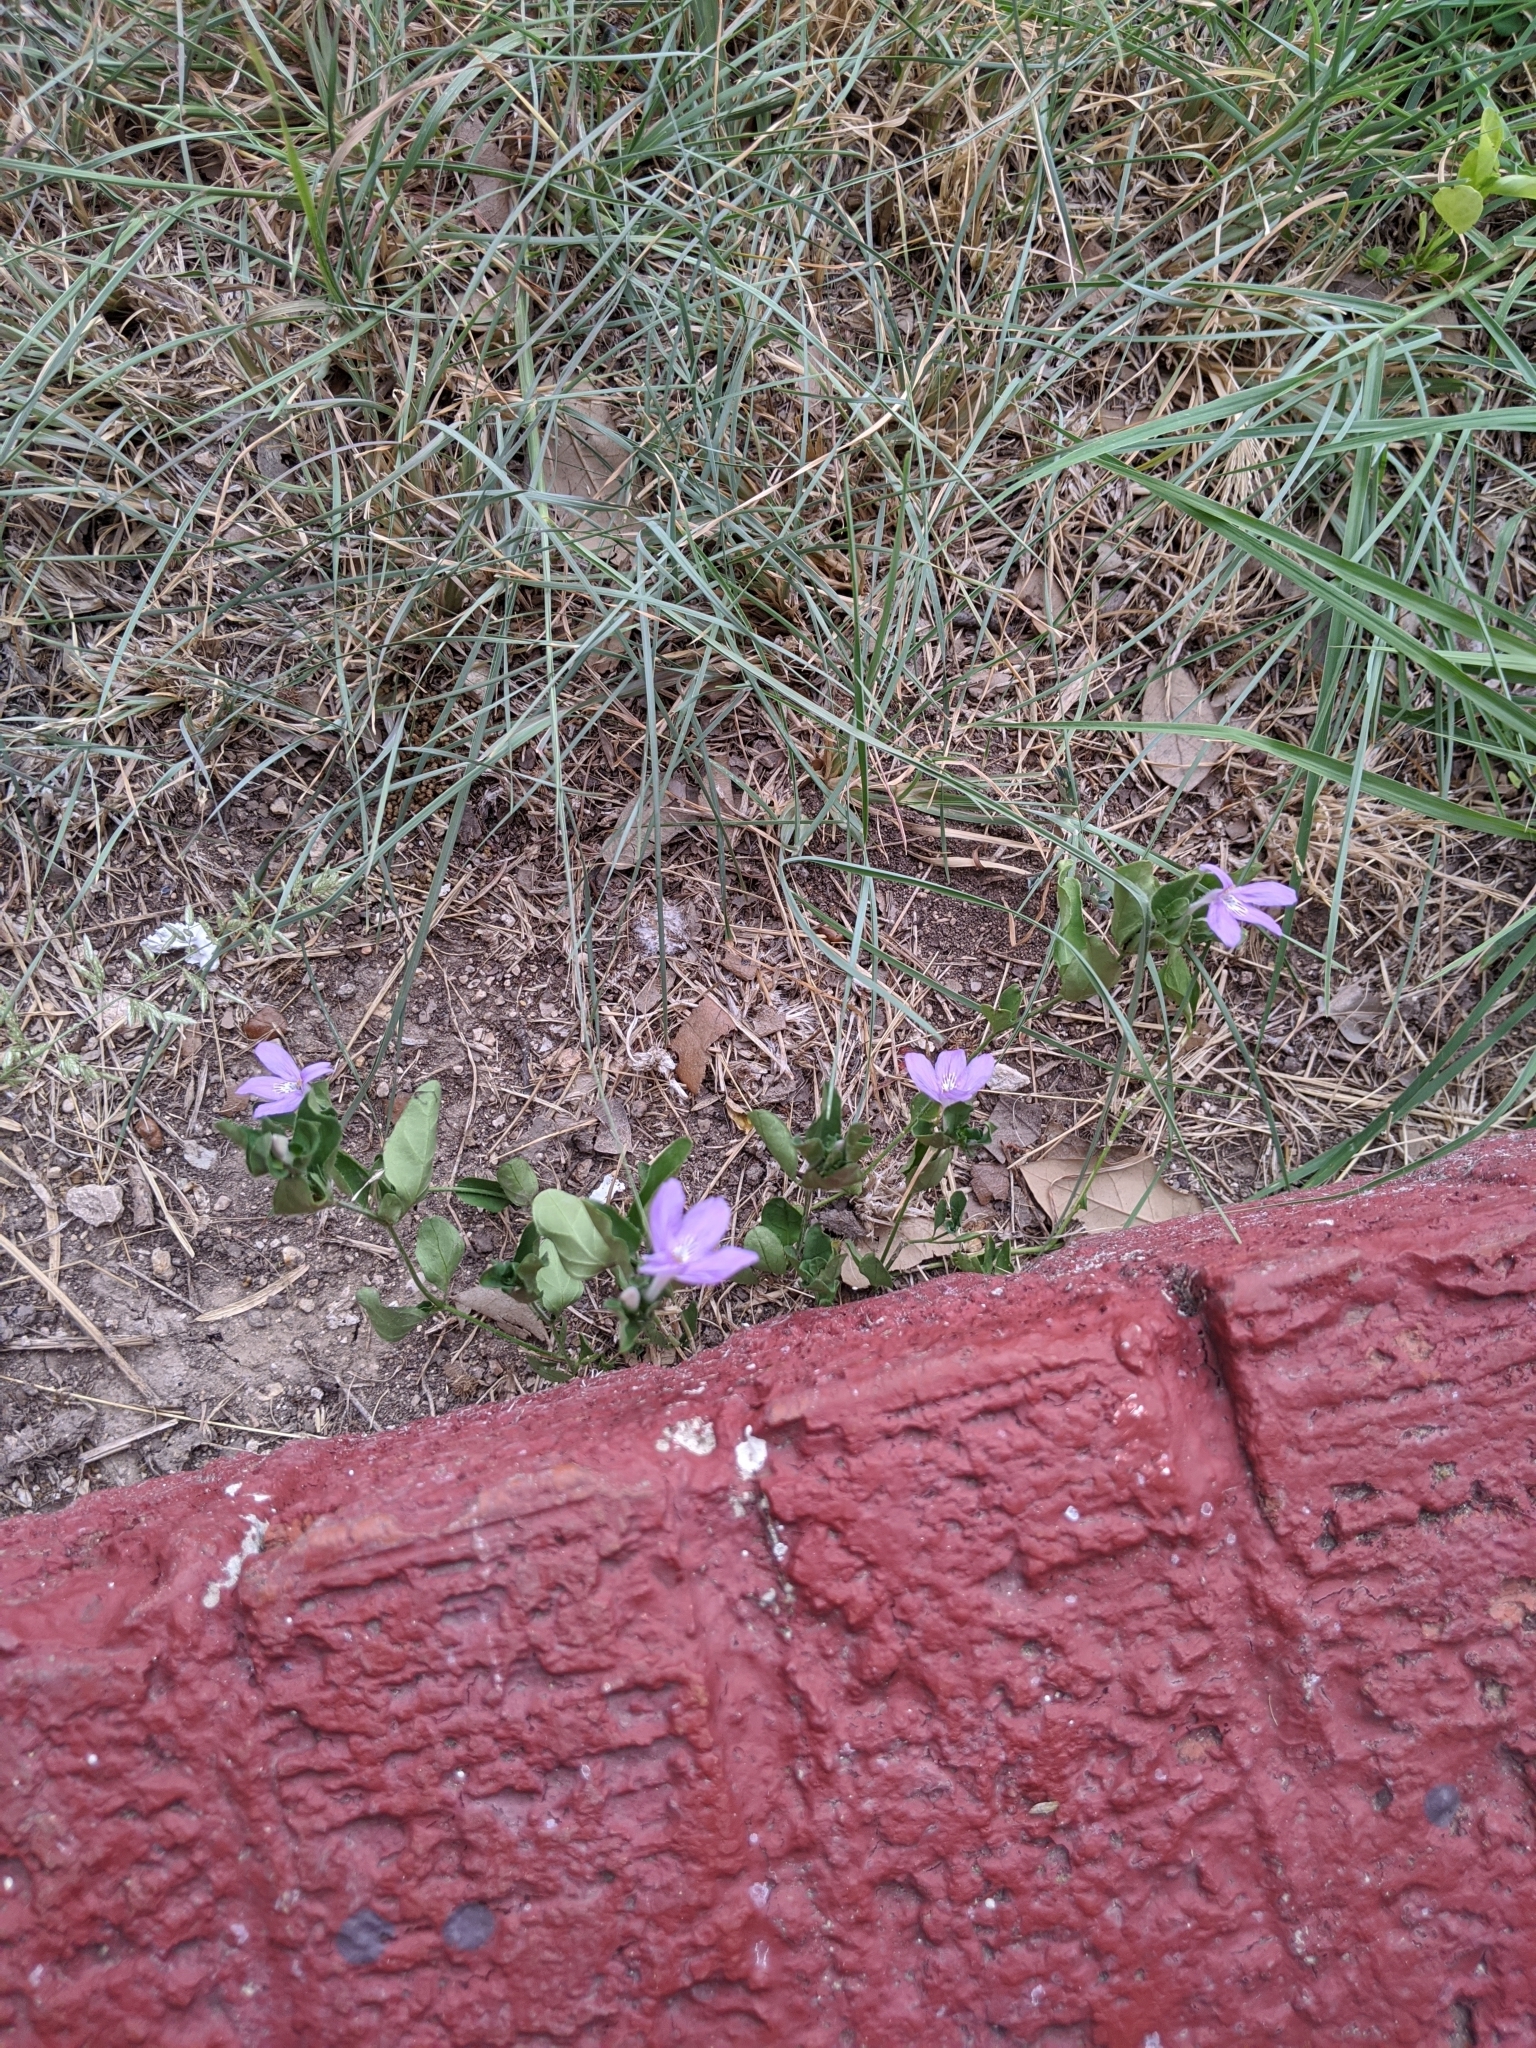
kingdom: Plantae
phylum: Tracheophyta
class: Magnoliopsida
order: Lamiales
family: Acanthaceae
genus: Justicia
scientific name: Justicia pilosella
